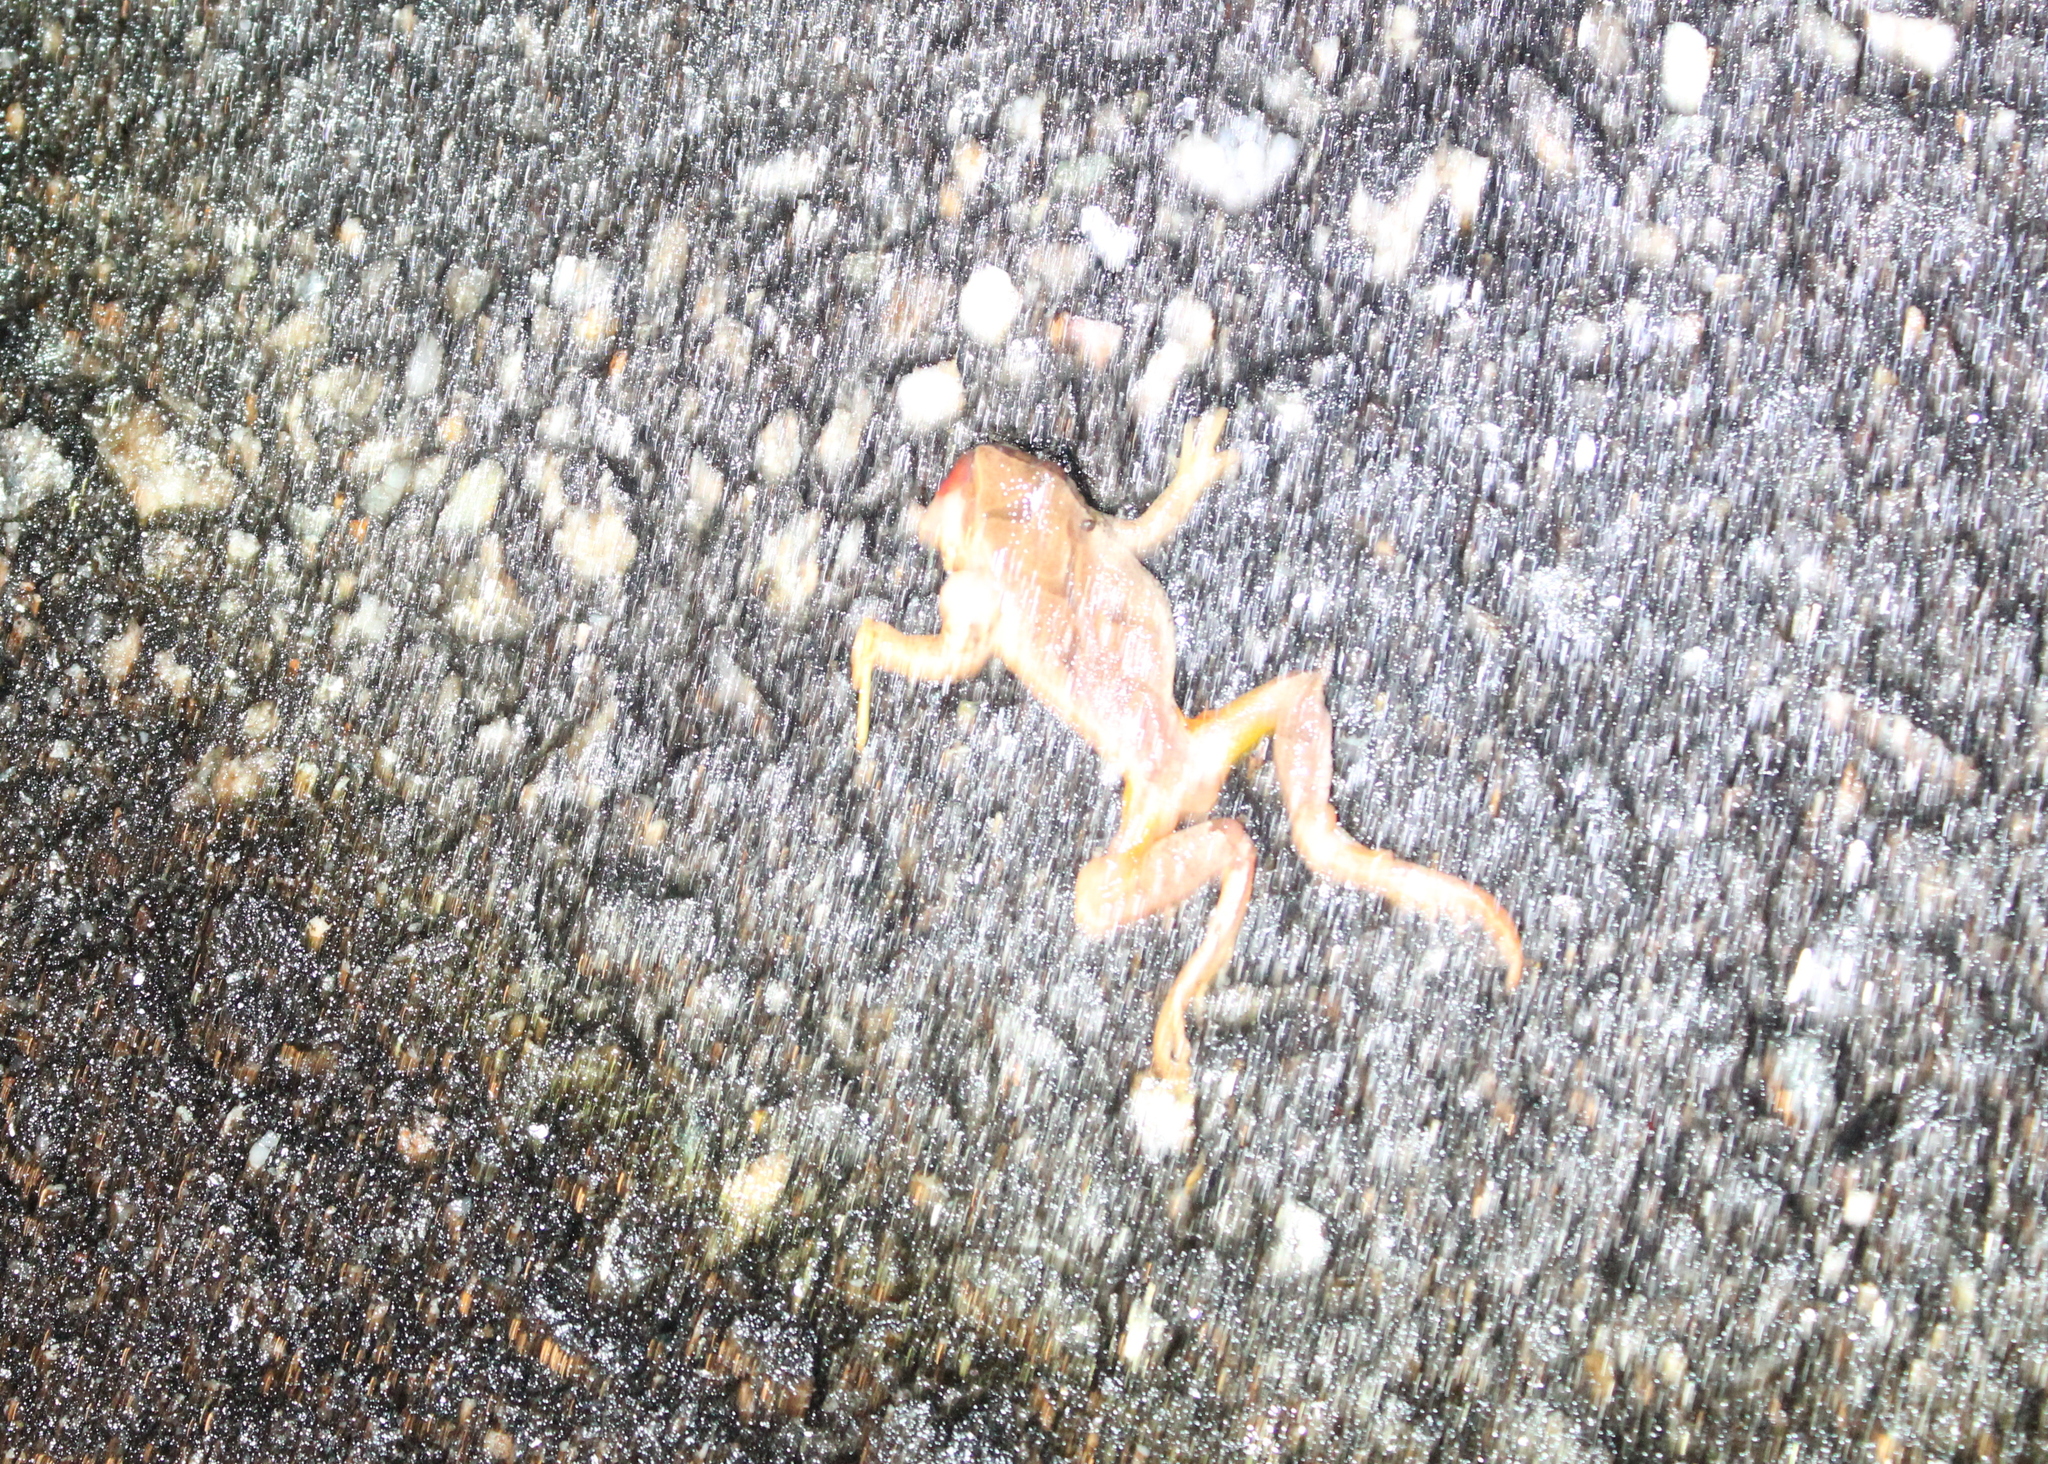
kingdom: Animalia
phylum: Chordata
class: Amphibia
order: Anura
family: Hylidae
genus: Pseudacris
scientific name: Pseudacris crucifer
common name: Spring peeper
